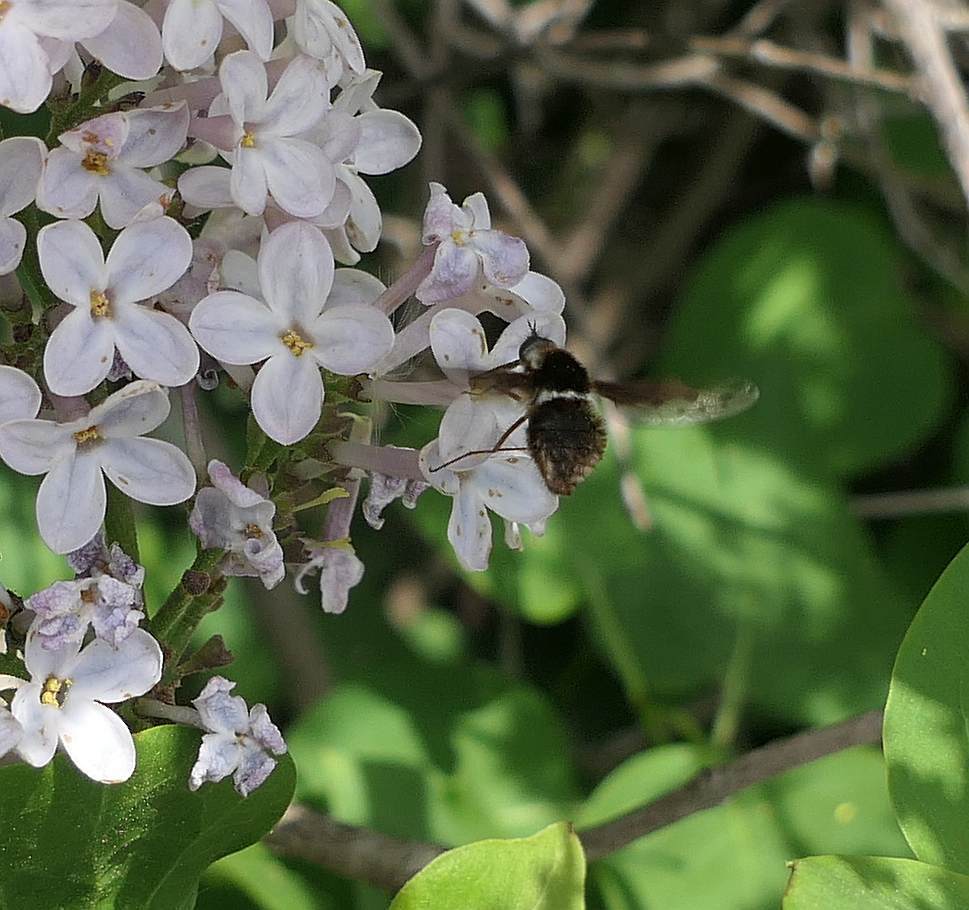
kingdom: Animalia
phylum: Arthropoda
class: Insecta
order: Diptera
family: Bombyliidae
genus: Bombylius
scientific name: Bombylius pygmaeus
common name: Pygmy bee fly
